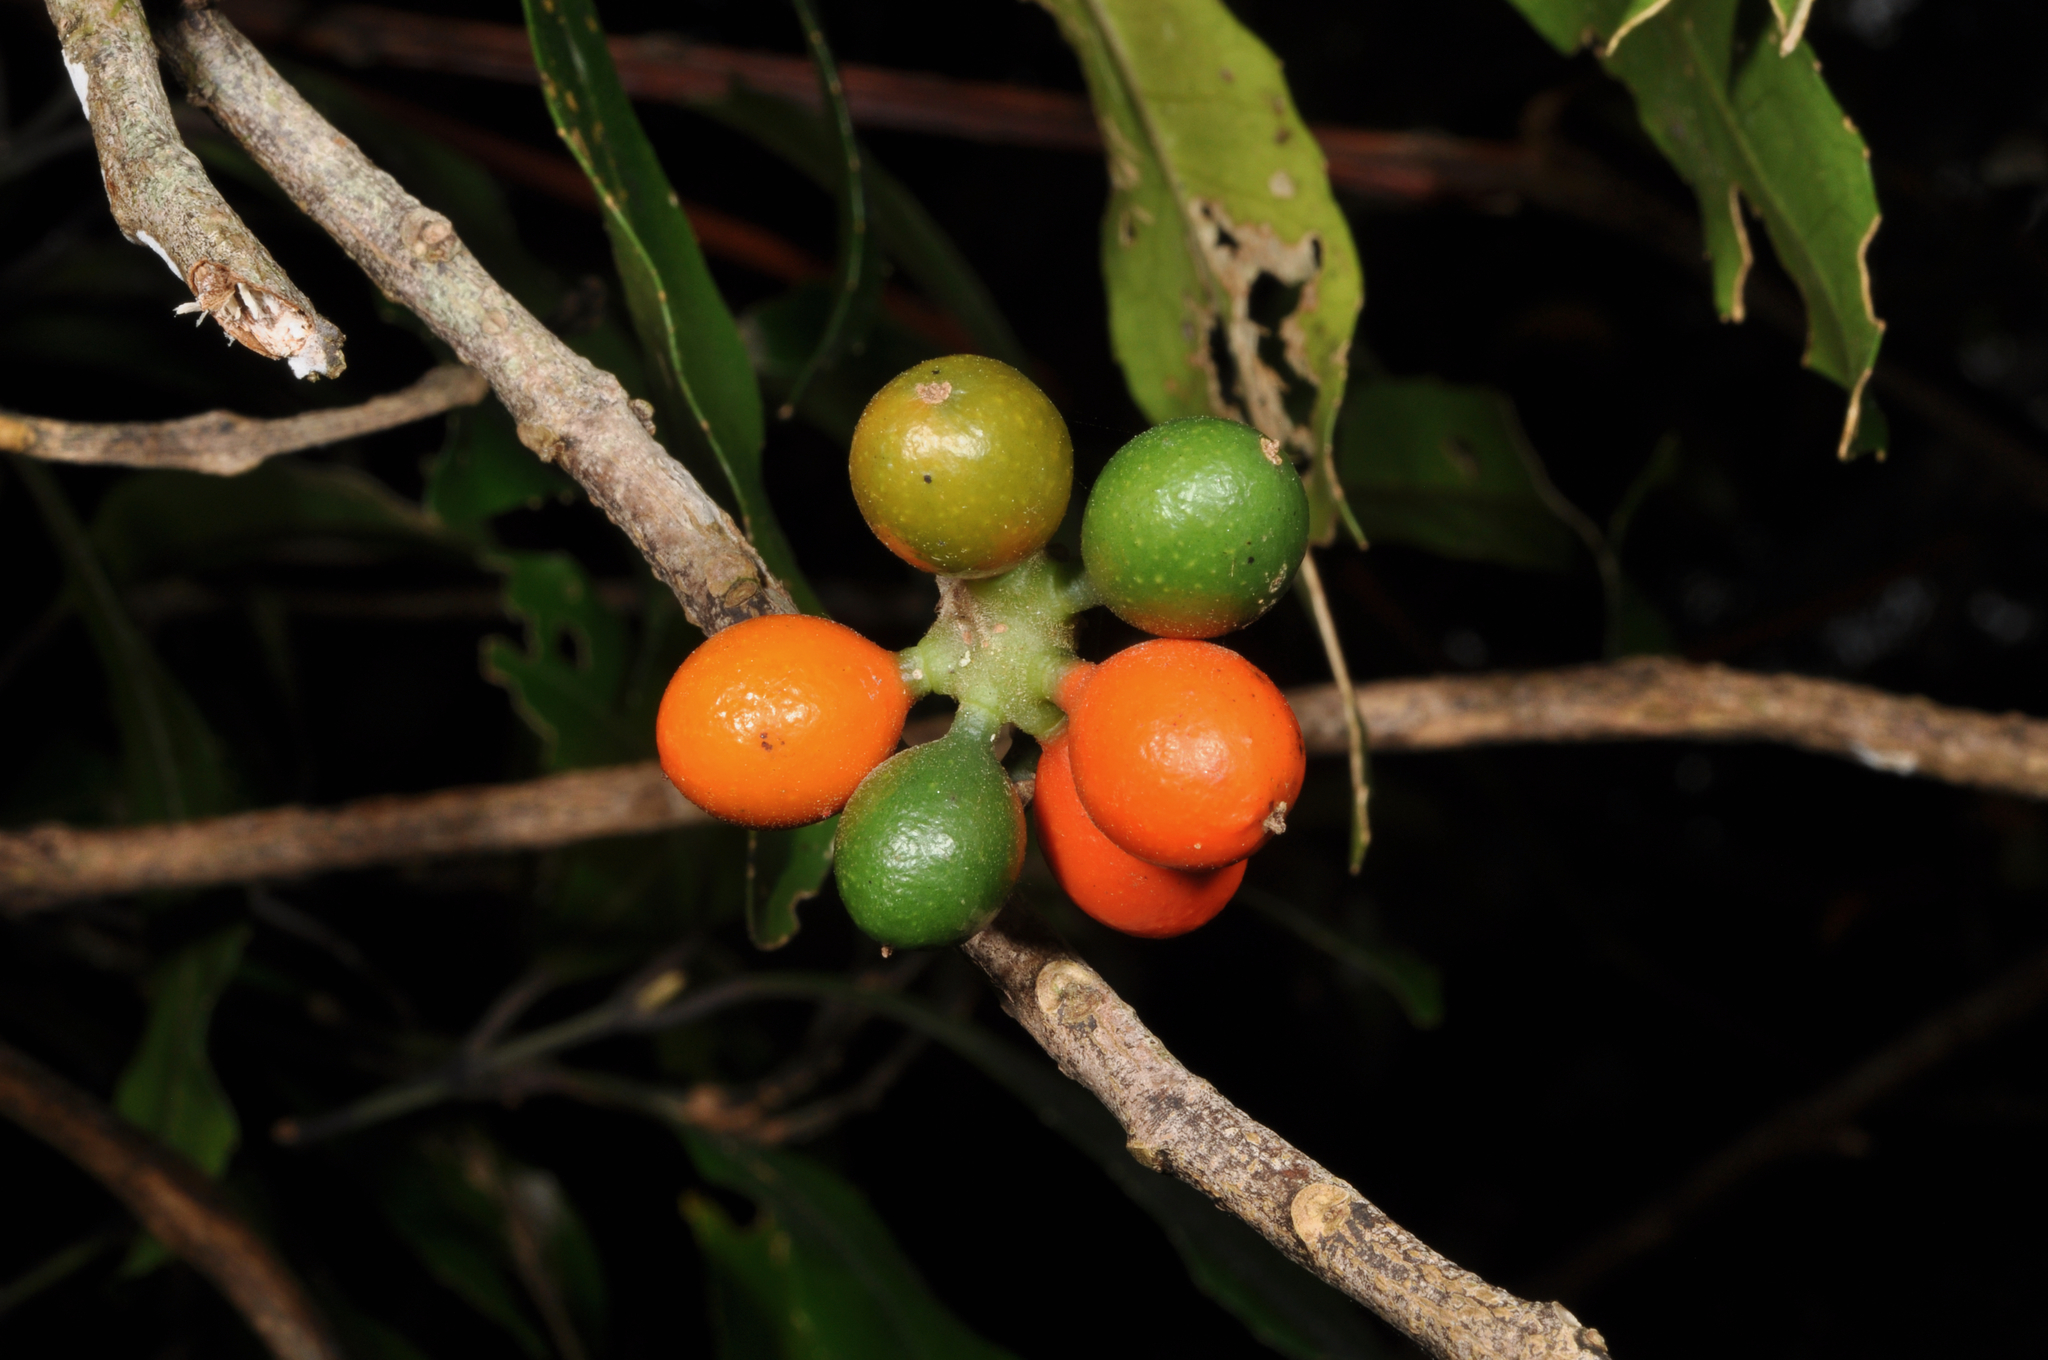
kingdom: Plantae
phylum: Tracheophyta
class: Magnoliopsida
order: Laurales
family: Monimiaceae
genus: Hedycarya
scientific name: Hedycarya arborea
